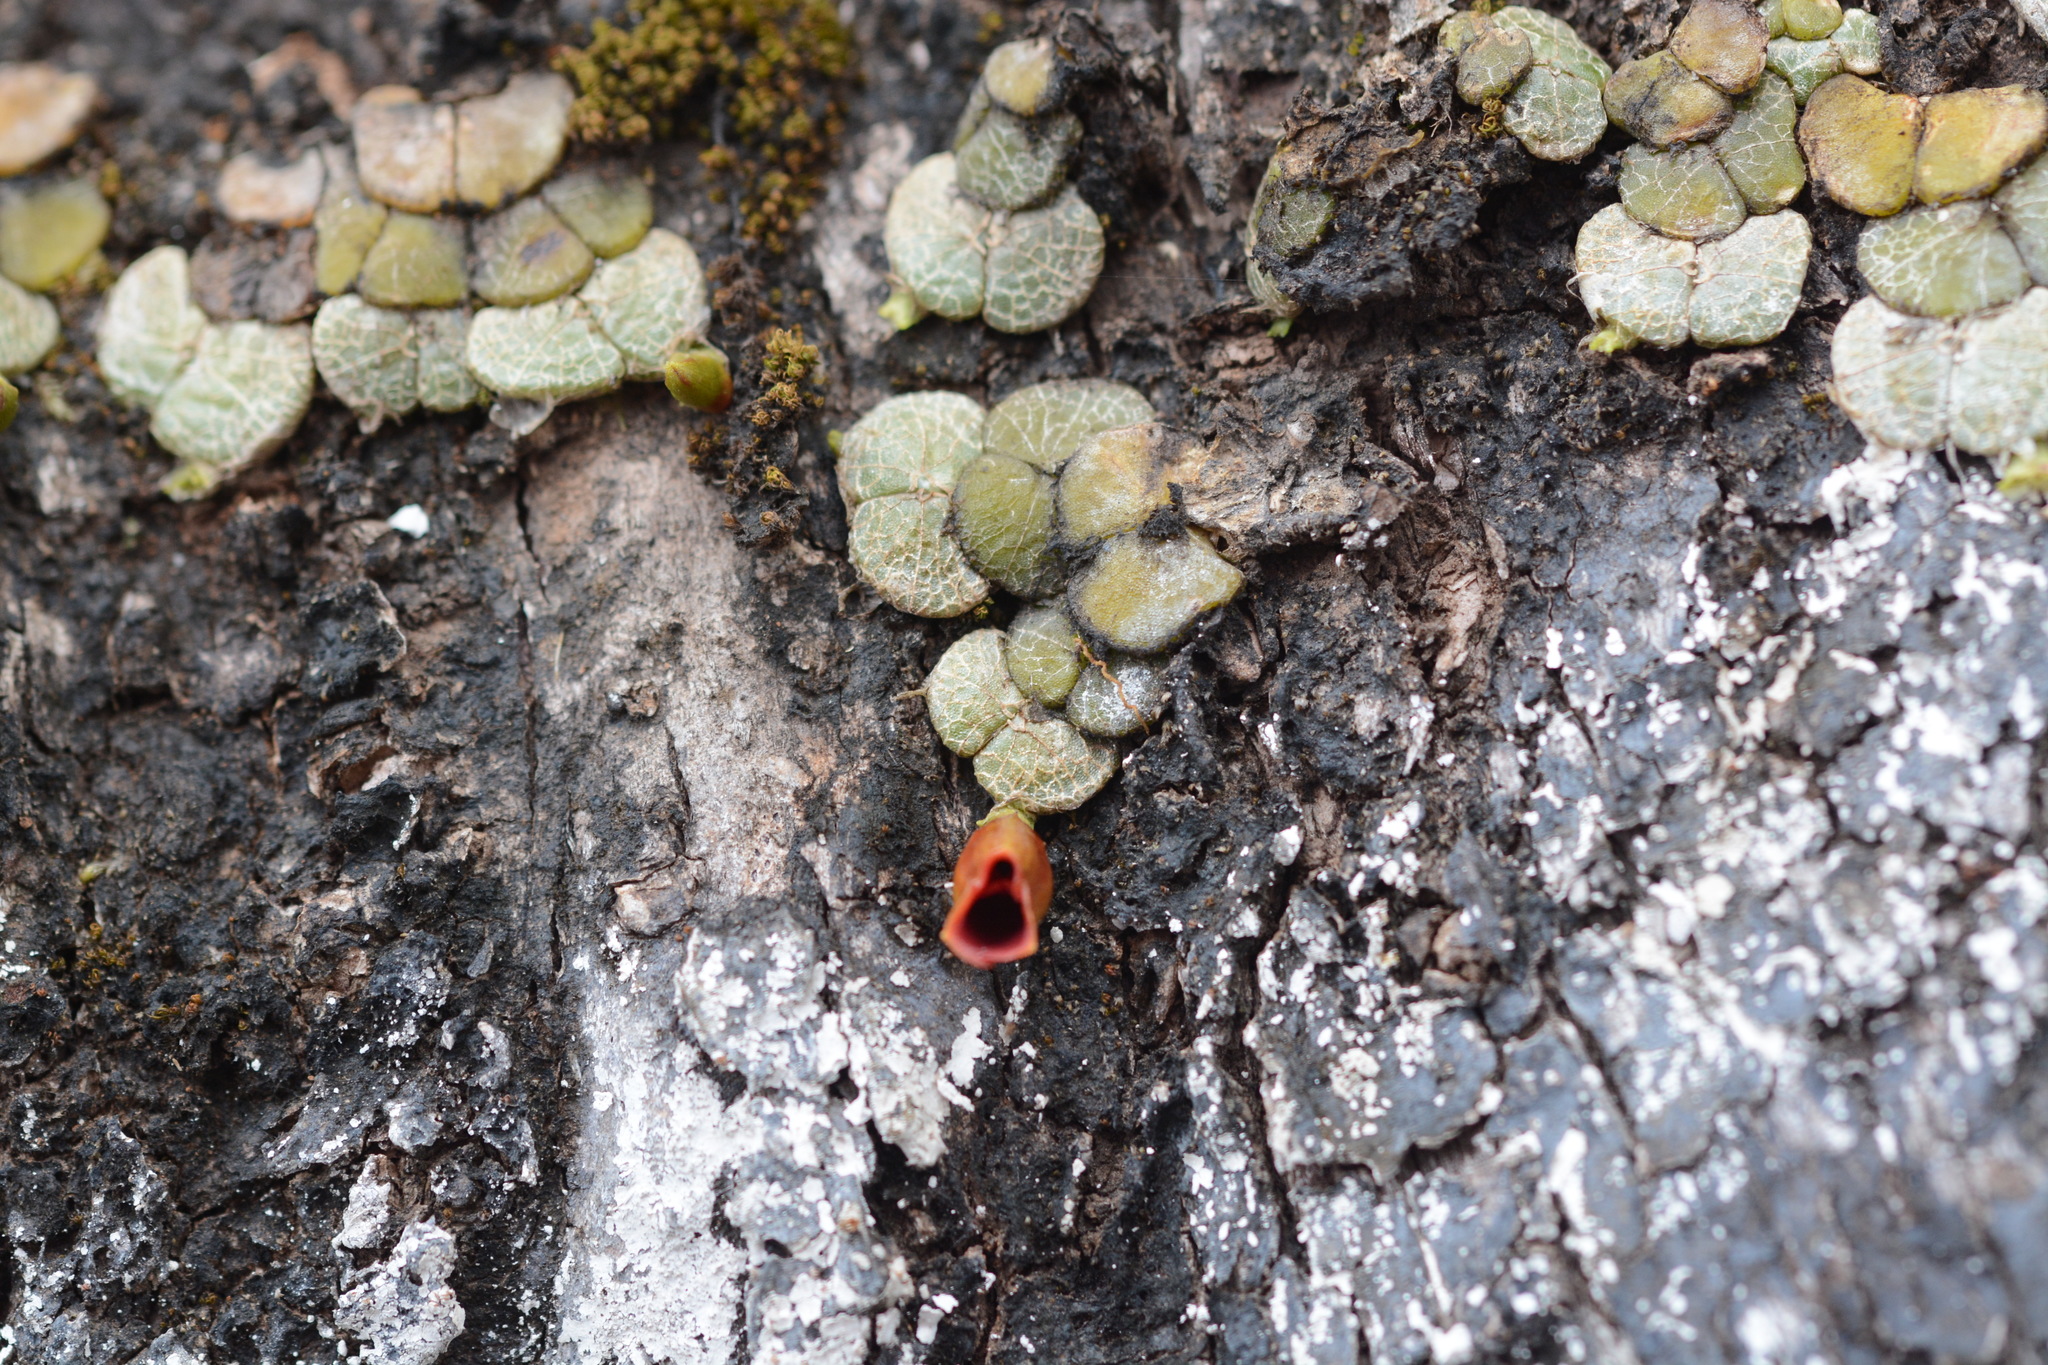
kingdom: Plantae
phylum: Tracheophyta
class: Liliopsida
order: Asparagales
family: Orchidaceae
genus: Porpax
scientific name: Porpax reticulata
